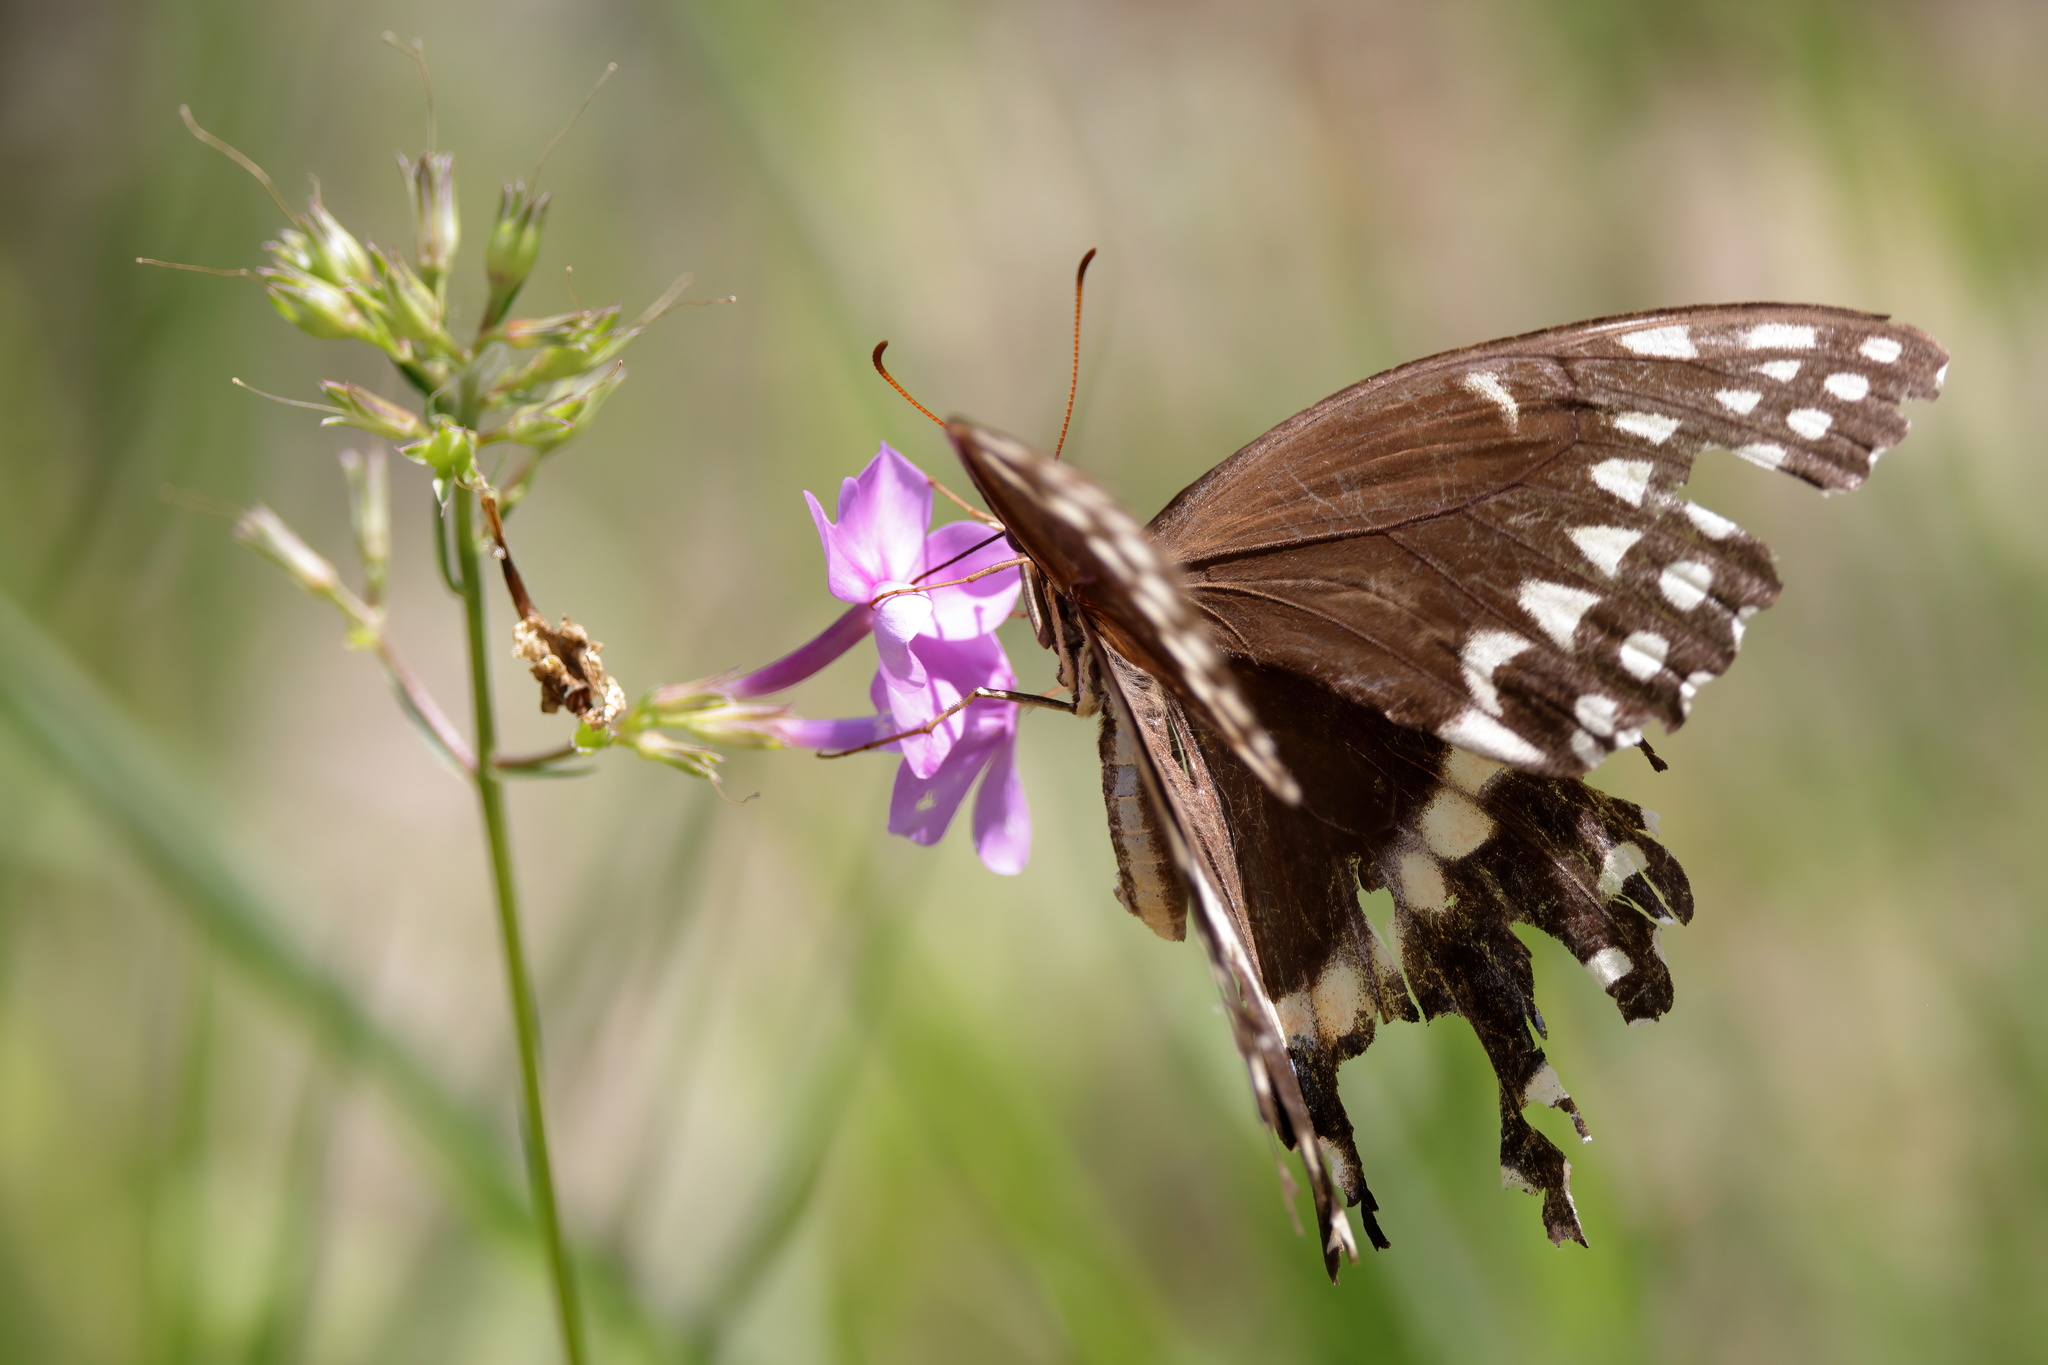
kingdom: Animalia
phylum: Arthropoda
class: Insecta
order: Lepidoptera
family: Papilionidae
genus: Papilio
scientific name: Papilio palamedes
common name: Palamedes swallowtail
